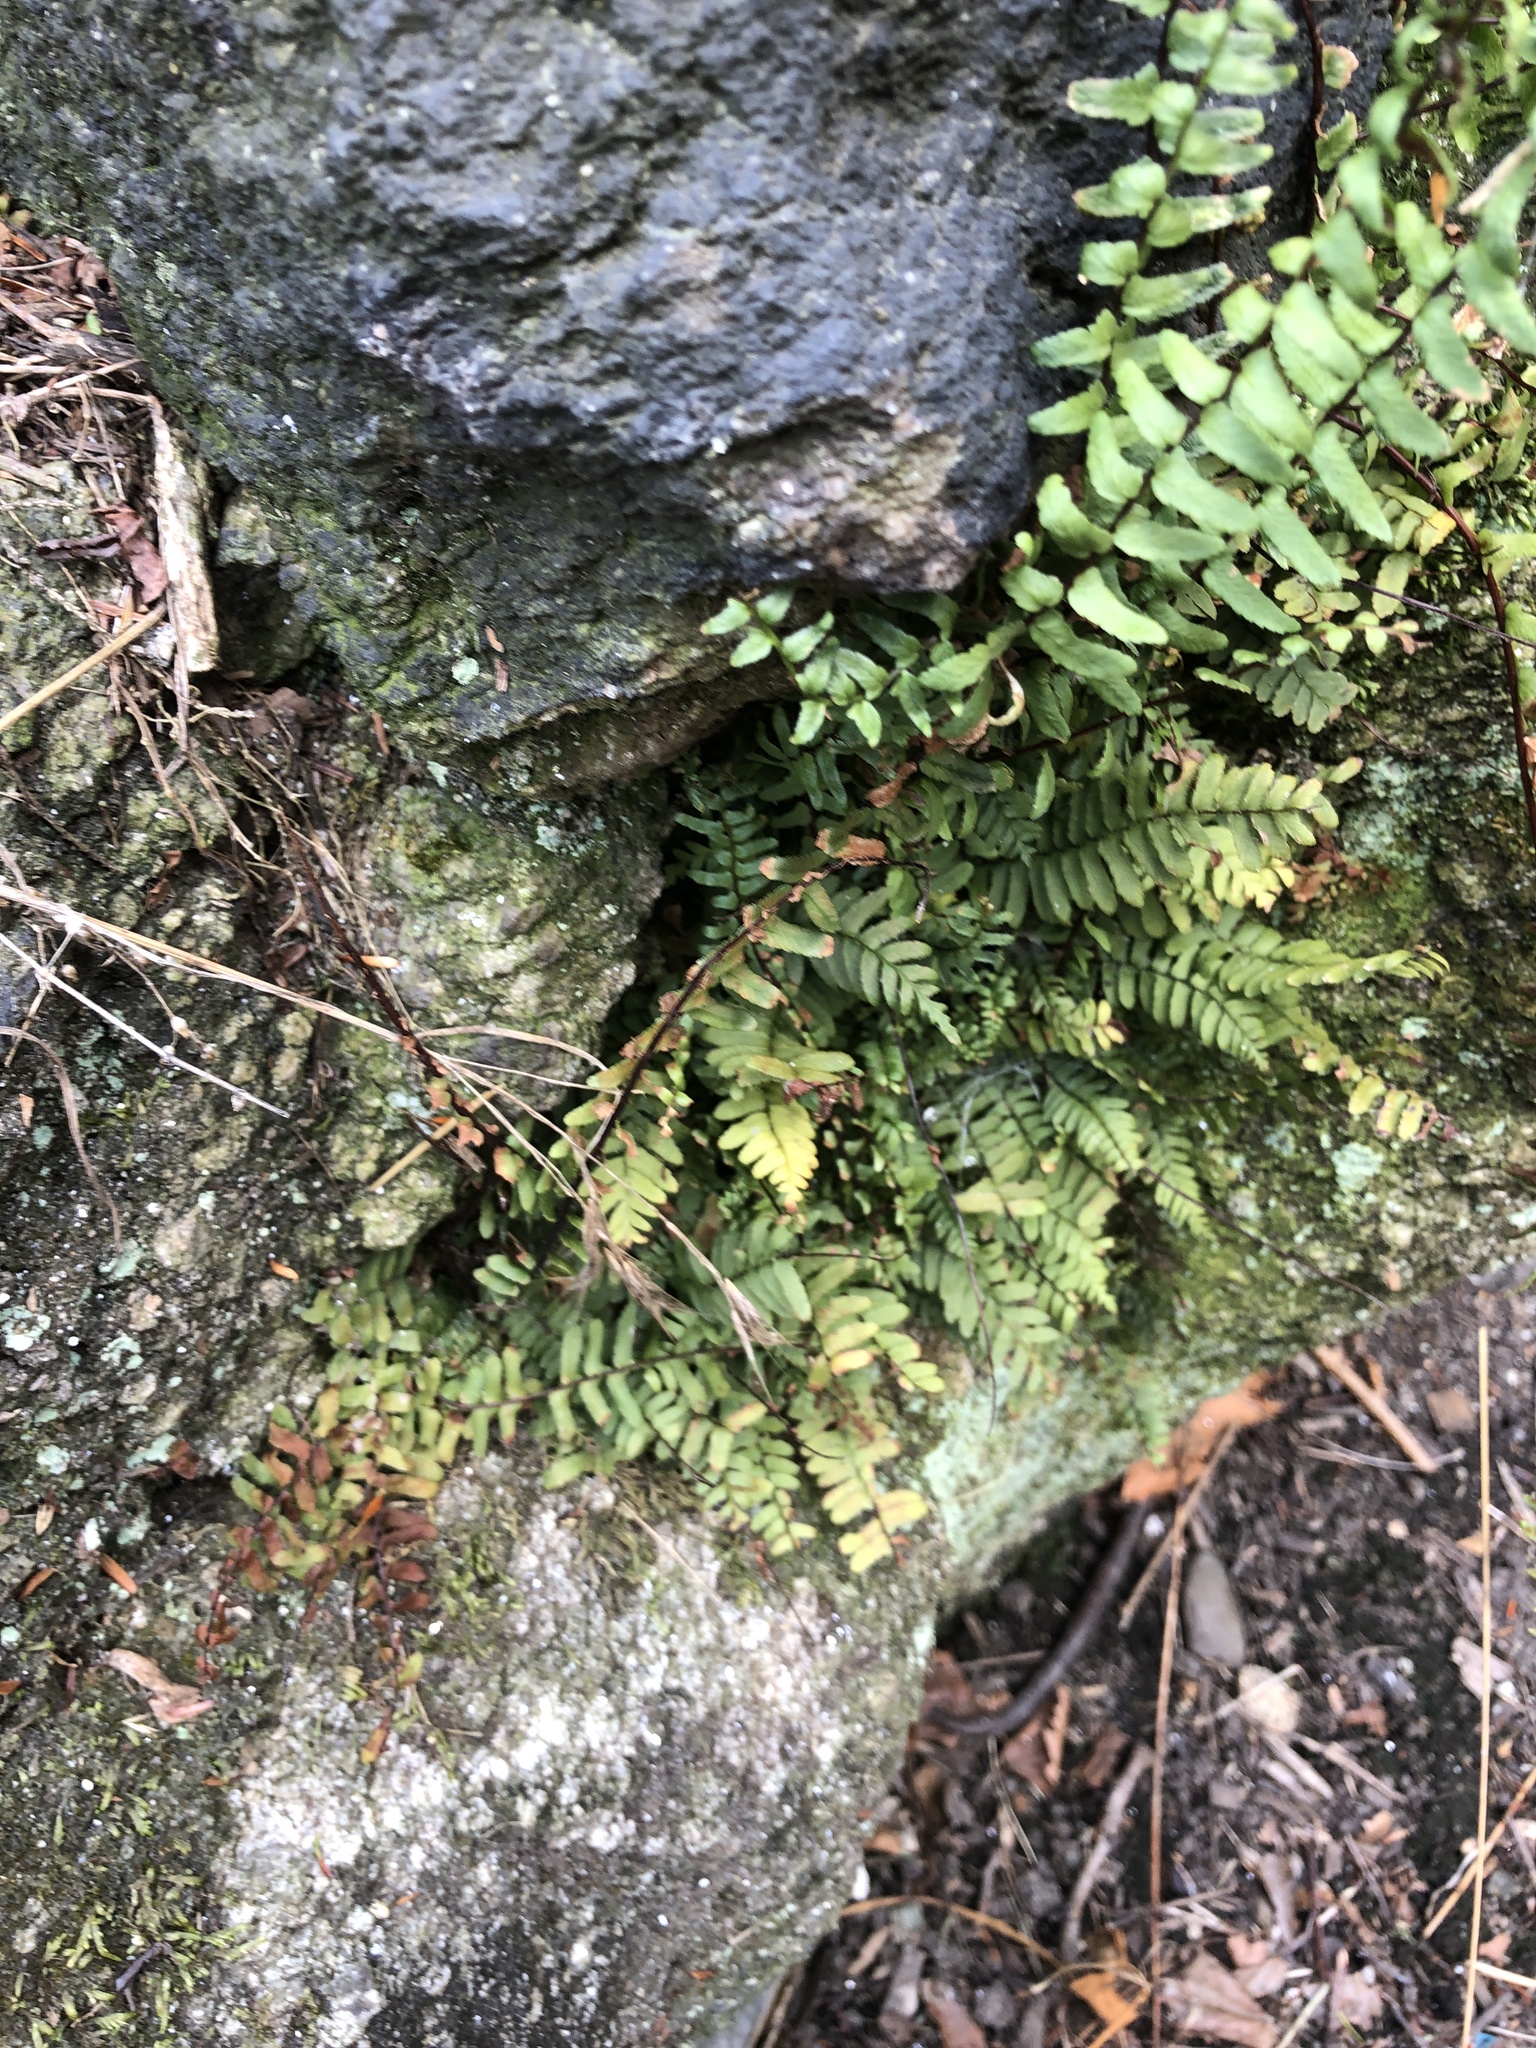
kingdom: Plantae
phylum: Tracheophyta
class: Polypodiopsida
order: Polypodiales
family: Aspleniaceae
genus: Asplenium
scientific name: Asplenium platyneuron
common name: Ebony spleenwort
